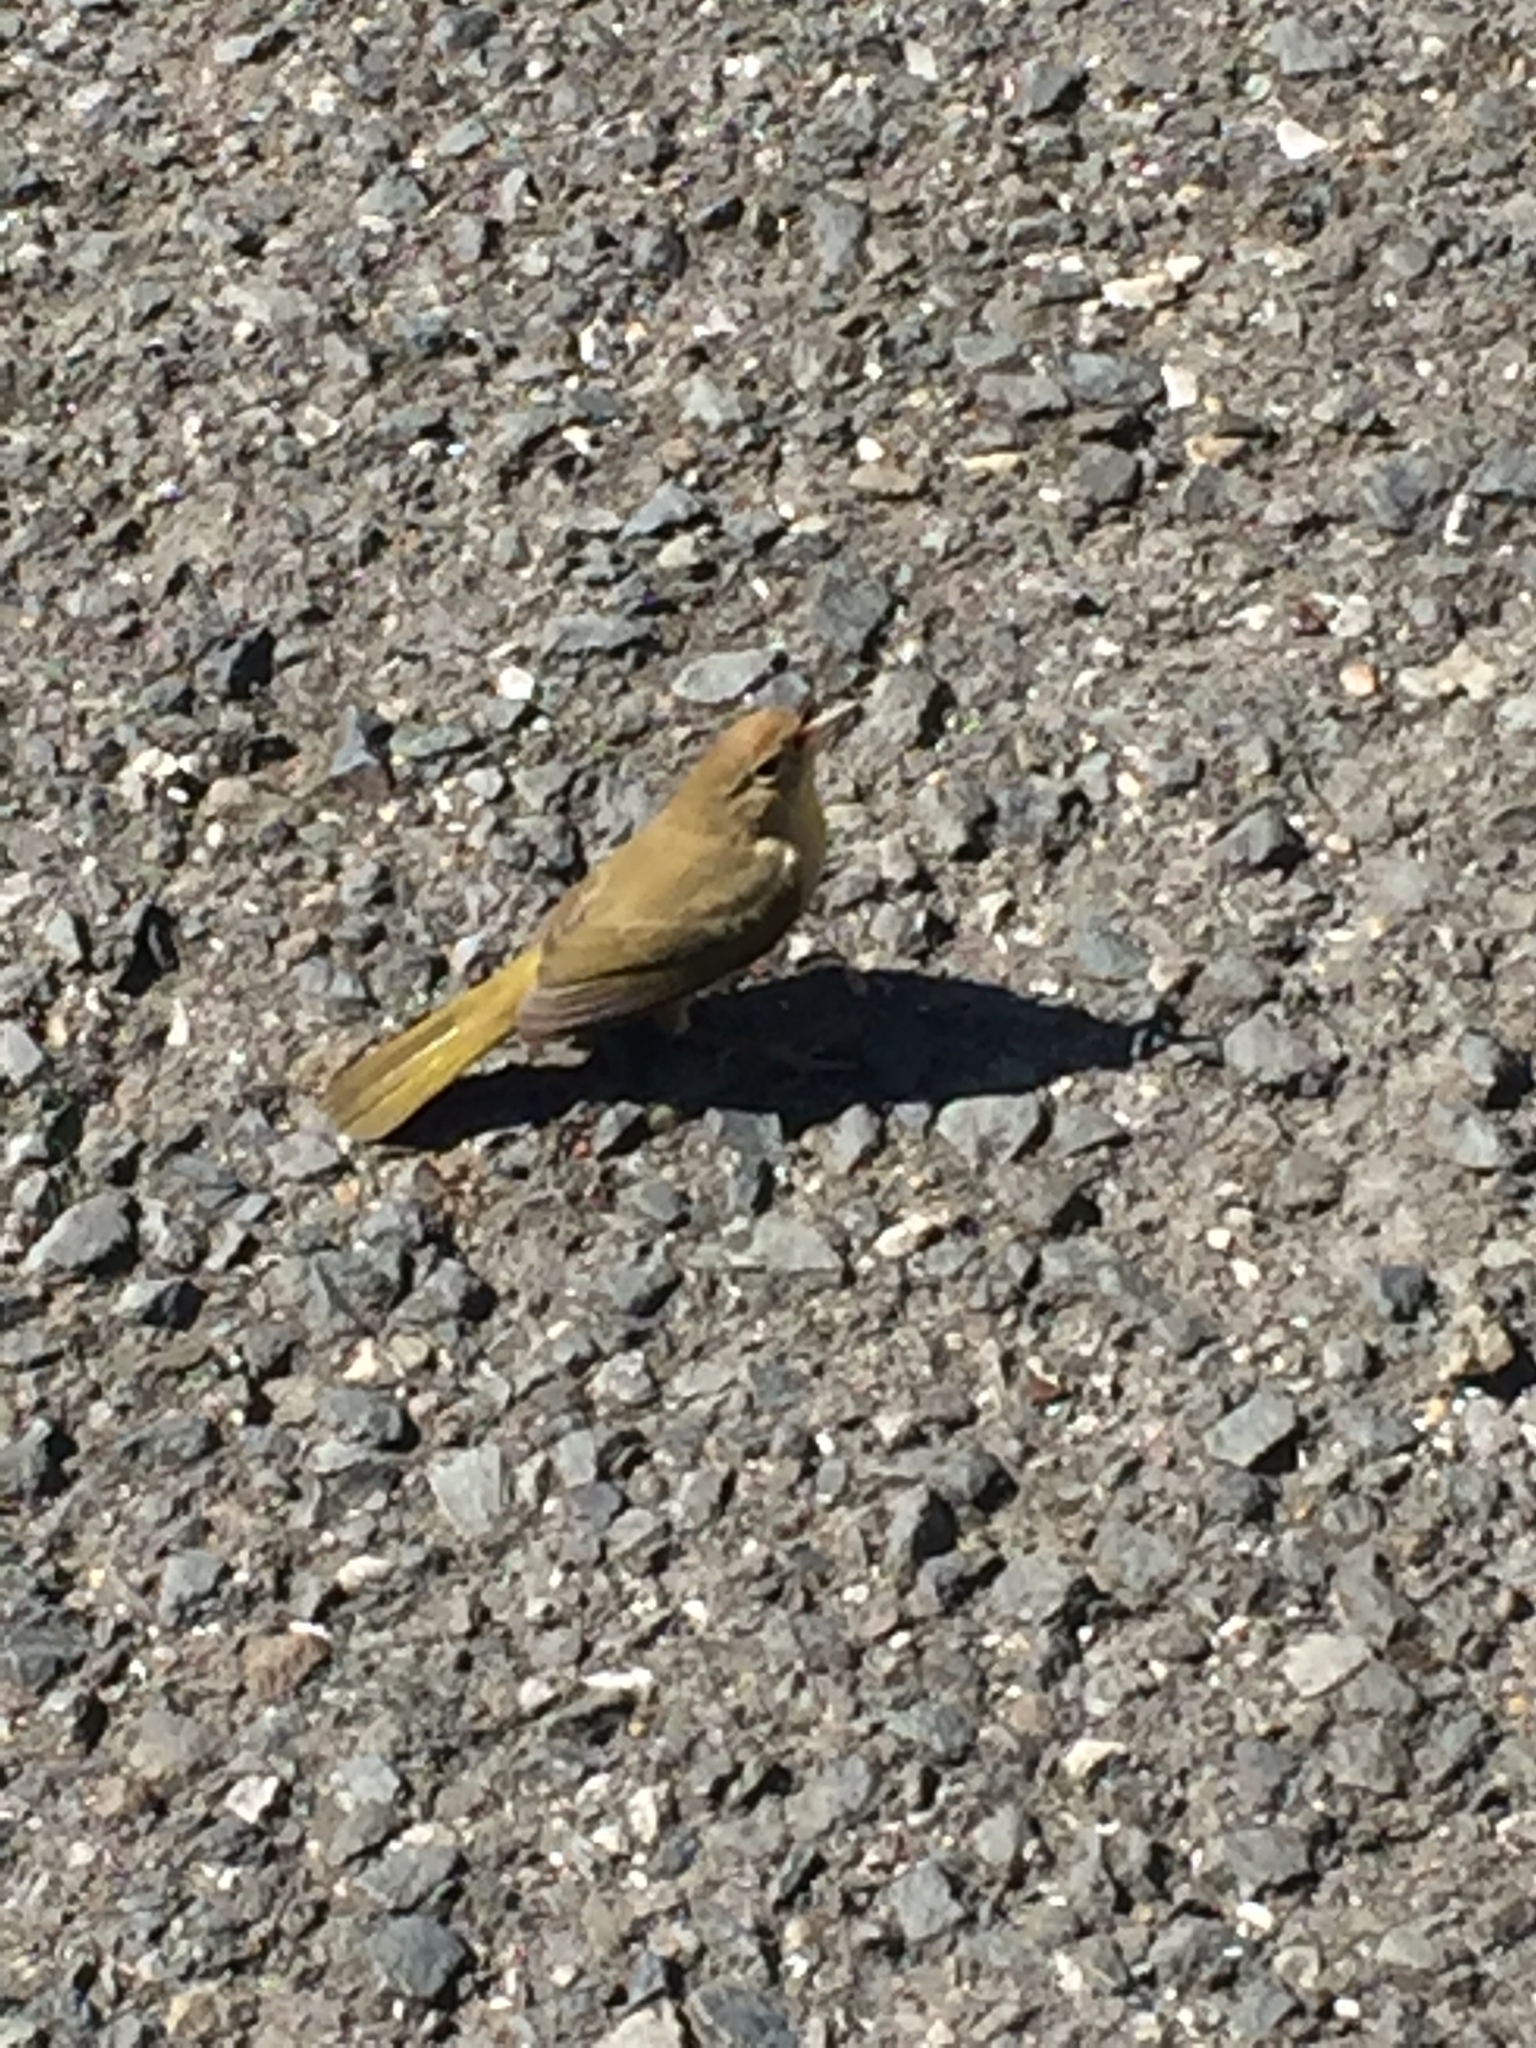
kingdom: Animalia
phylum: Chordata
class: Aves
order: Passeriformes
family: Parulidae
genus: Leiothlypis
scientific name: Leiothlypis celata
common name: Orange-crowned warbler
